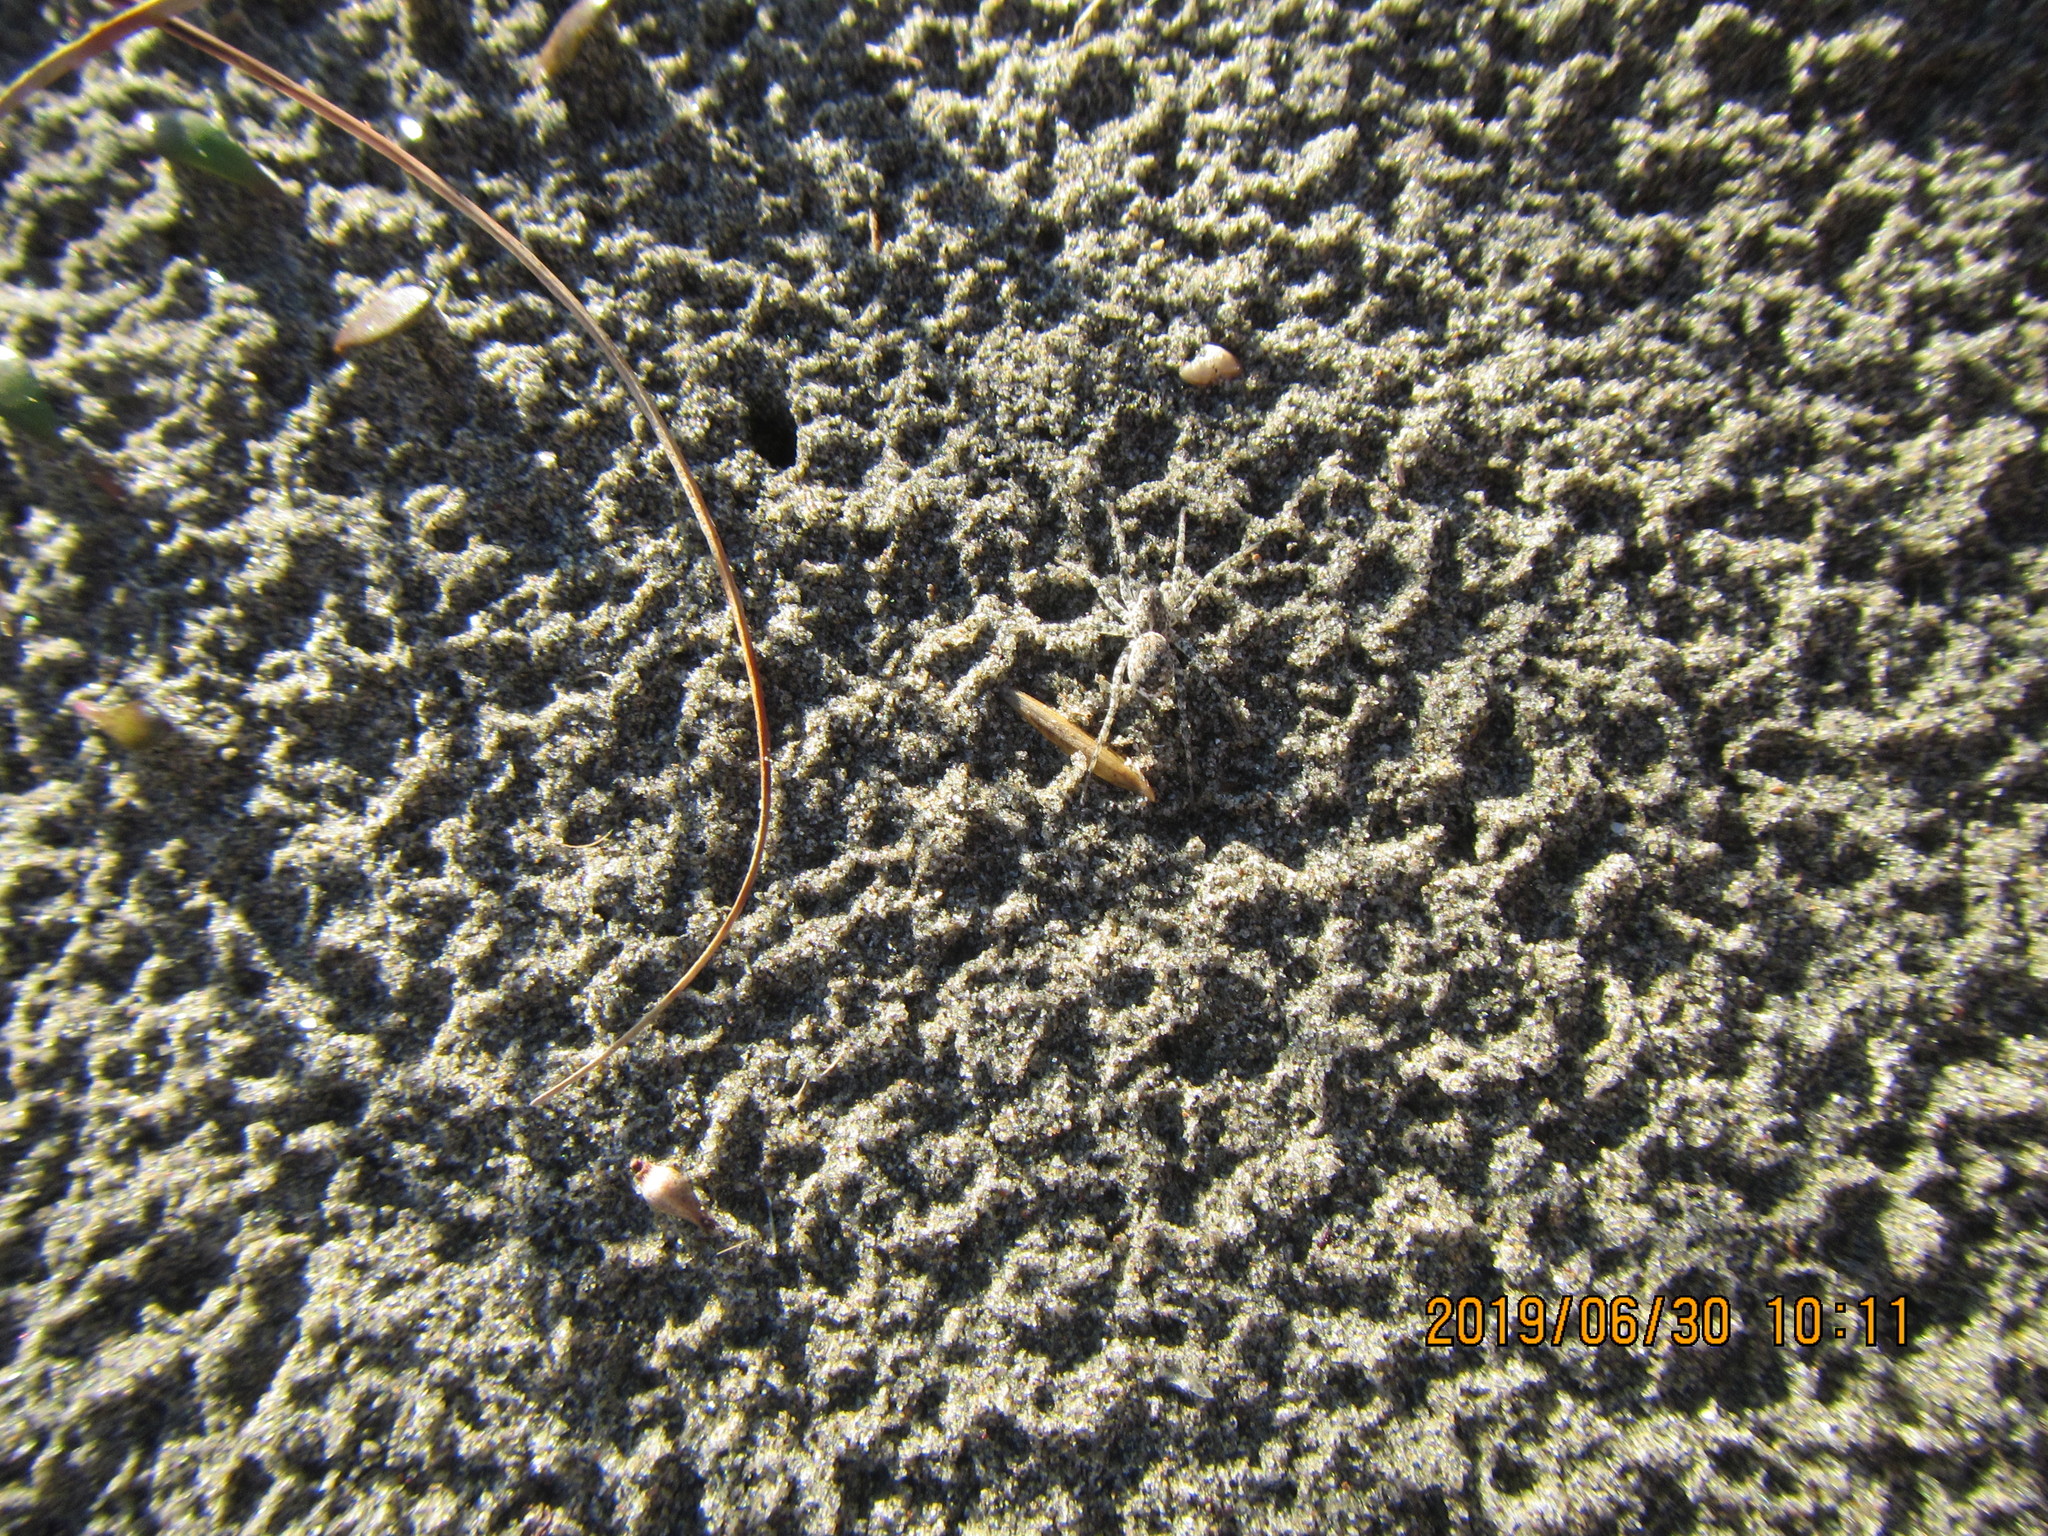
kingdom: Animalia
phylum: Arthropoda
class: Arachnida
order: Araneae
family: Lycosidae
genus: Anoteropsis
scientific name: Anoteropsis litoralis
